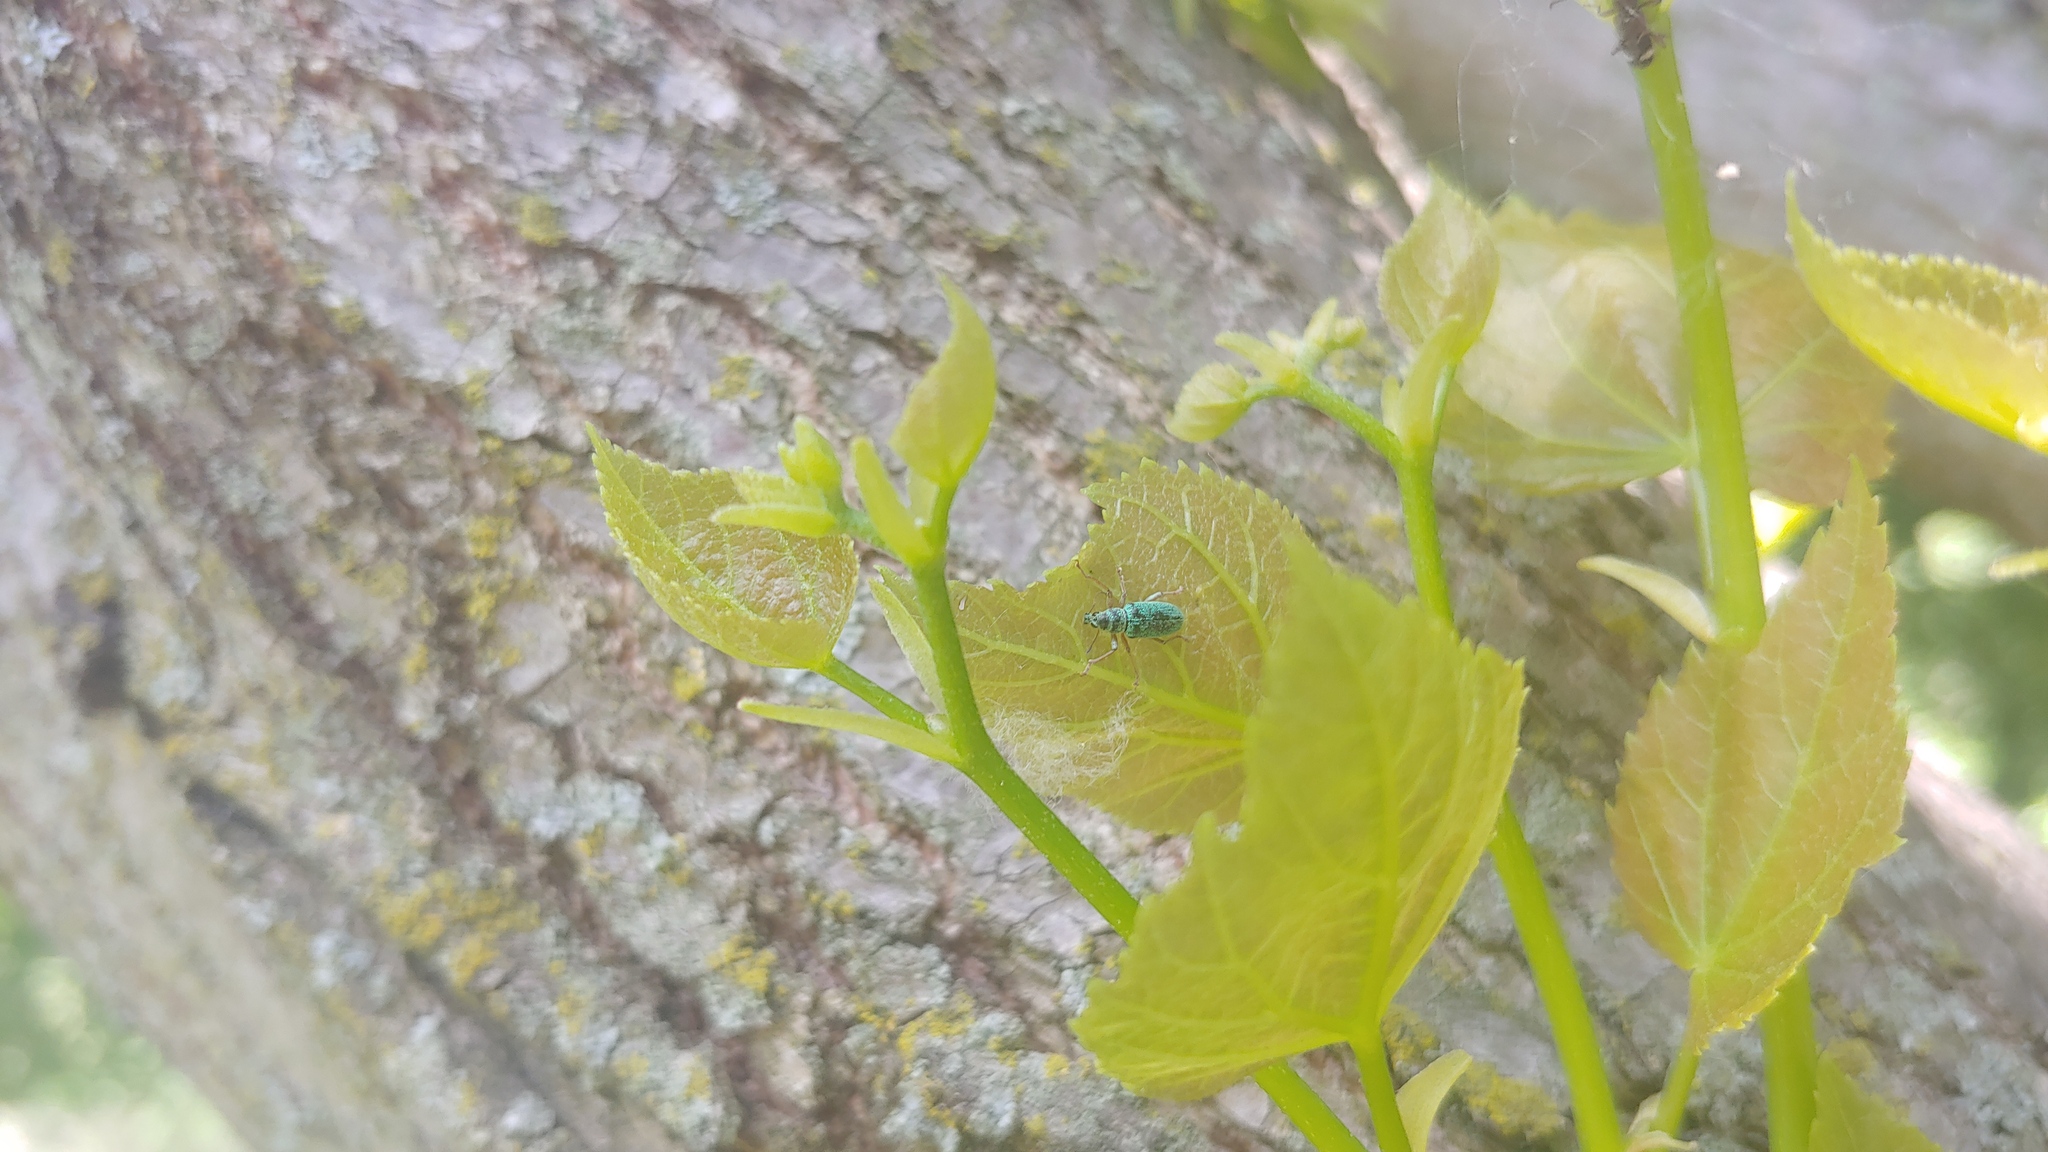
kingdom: Animalia
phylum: Arthropoda
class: Insecta
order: Coleoptera
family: Curculionidae
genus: Polydrusus
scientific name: Polydrusus formosus
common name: Weevil
